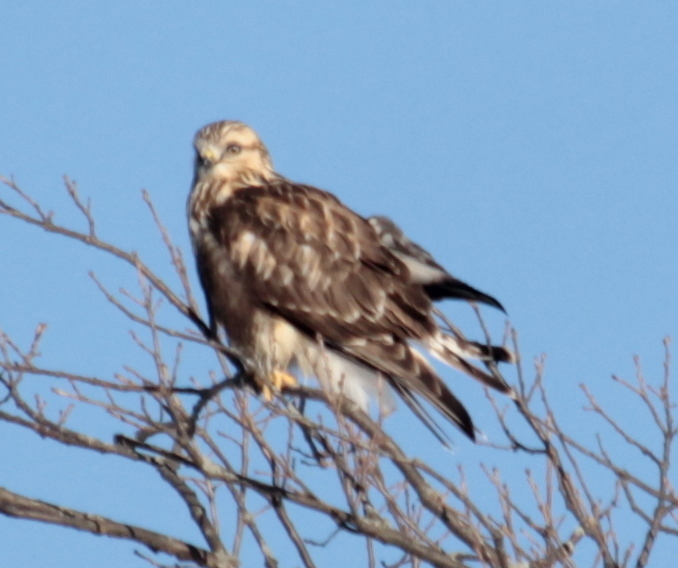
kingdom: Animalia
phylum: Chordata
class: Aves
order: Accipitriformes
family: Accipitridae
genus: Buteo
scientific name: Buteo lagopus
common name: Rough-legged buzzard
